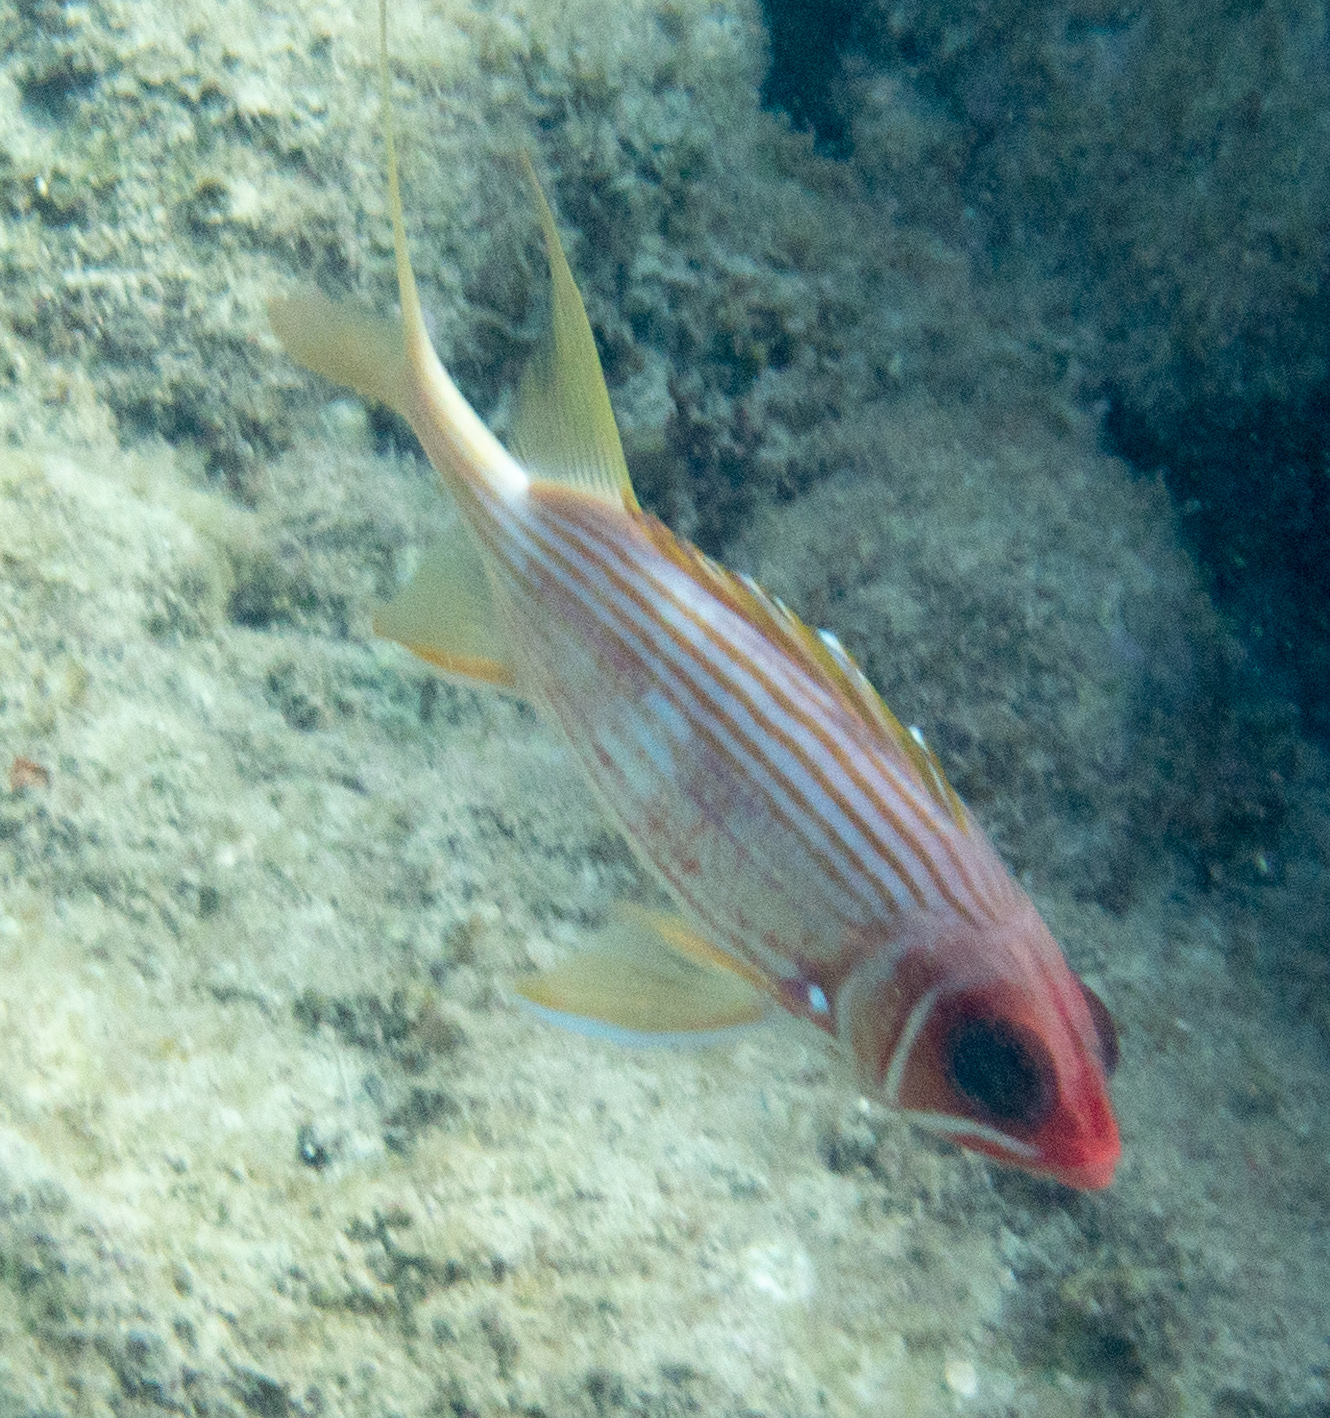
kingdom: Animalia
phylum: Chordata
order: Beryciformes
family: Holocentridae
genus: Holocentrus
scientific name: Holocentrus rufus
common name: Longspine squirrelfish
